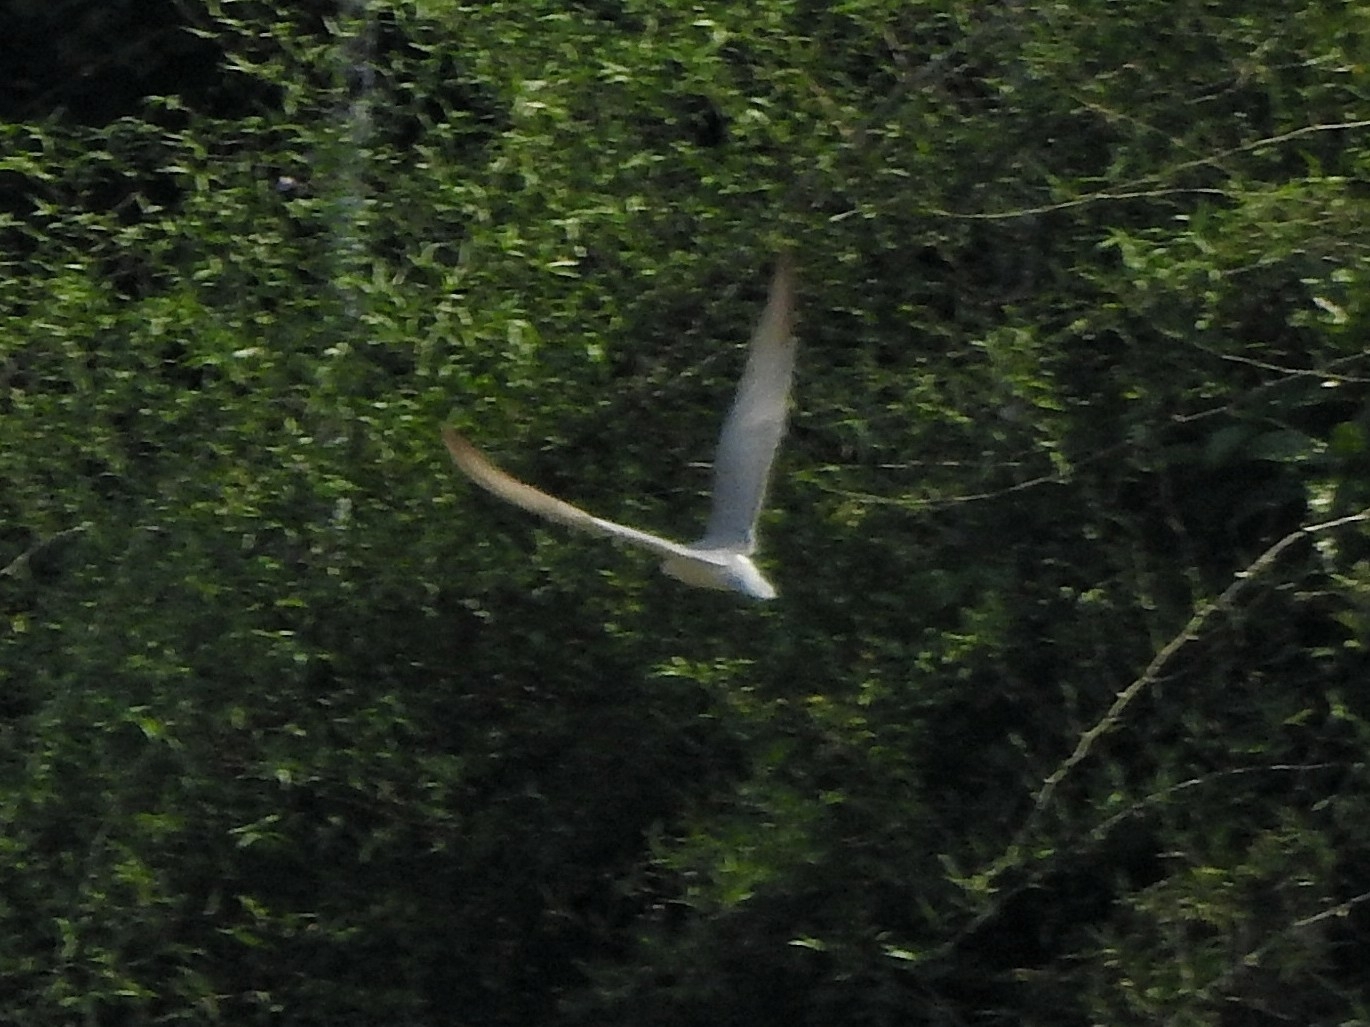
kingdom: Animalia
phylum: Chordata
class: Aves
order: Charadriiformes
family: Laridae
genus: Chlidonias
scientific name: Chlidonias hybrida
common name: Whiskered tern
